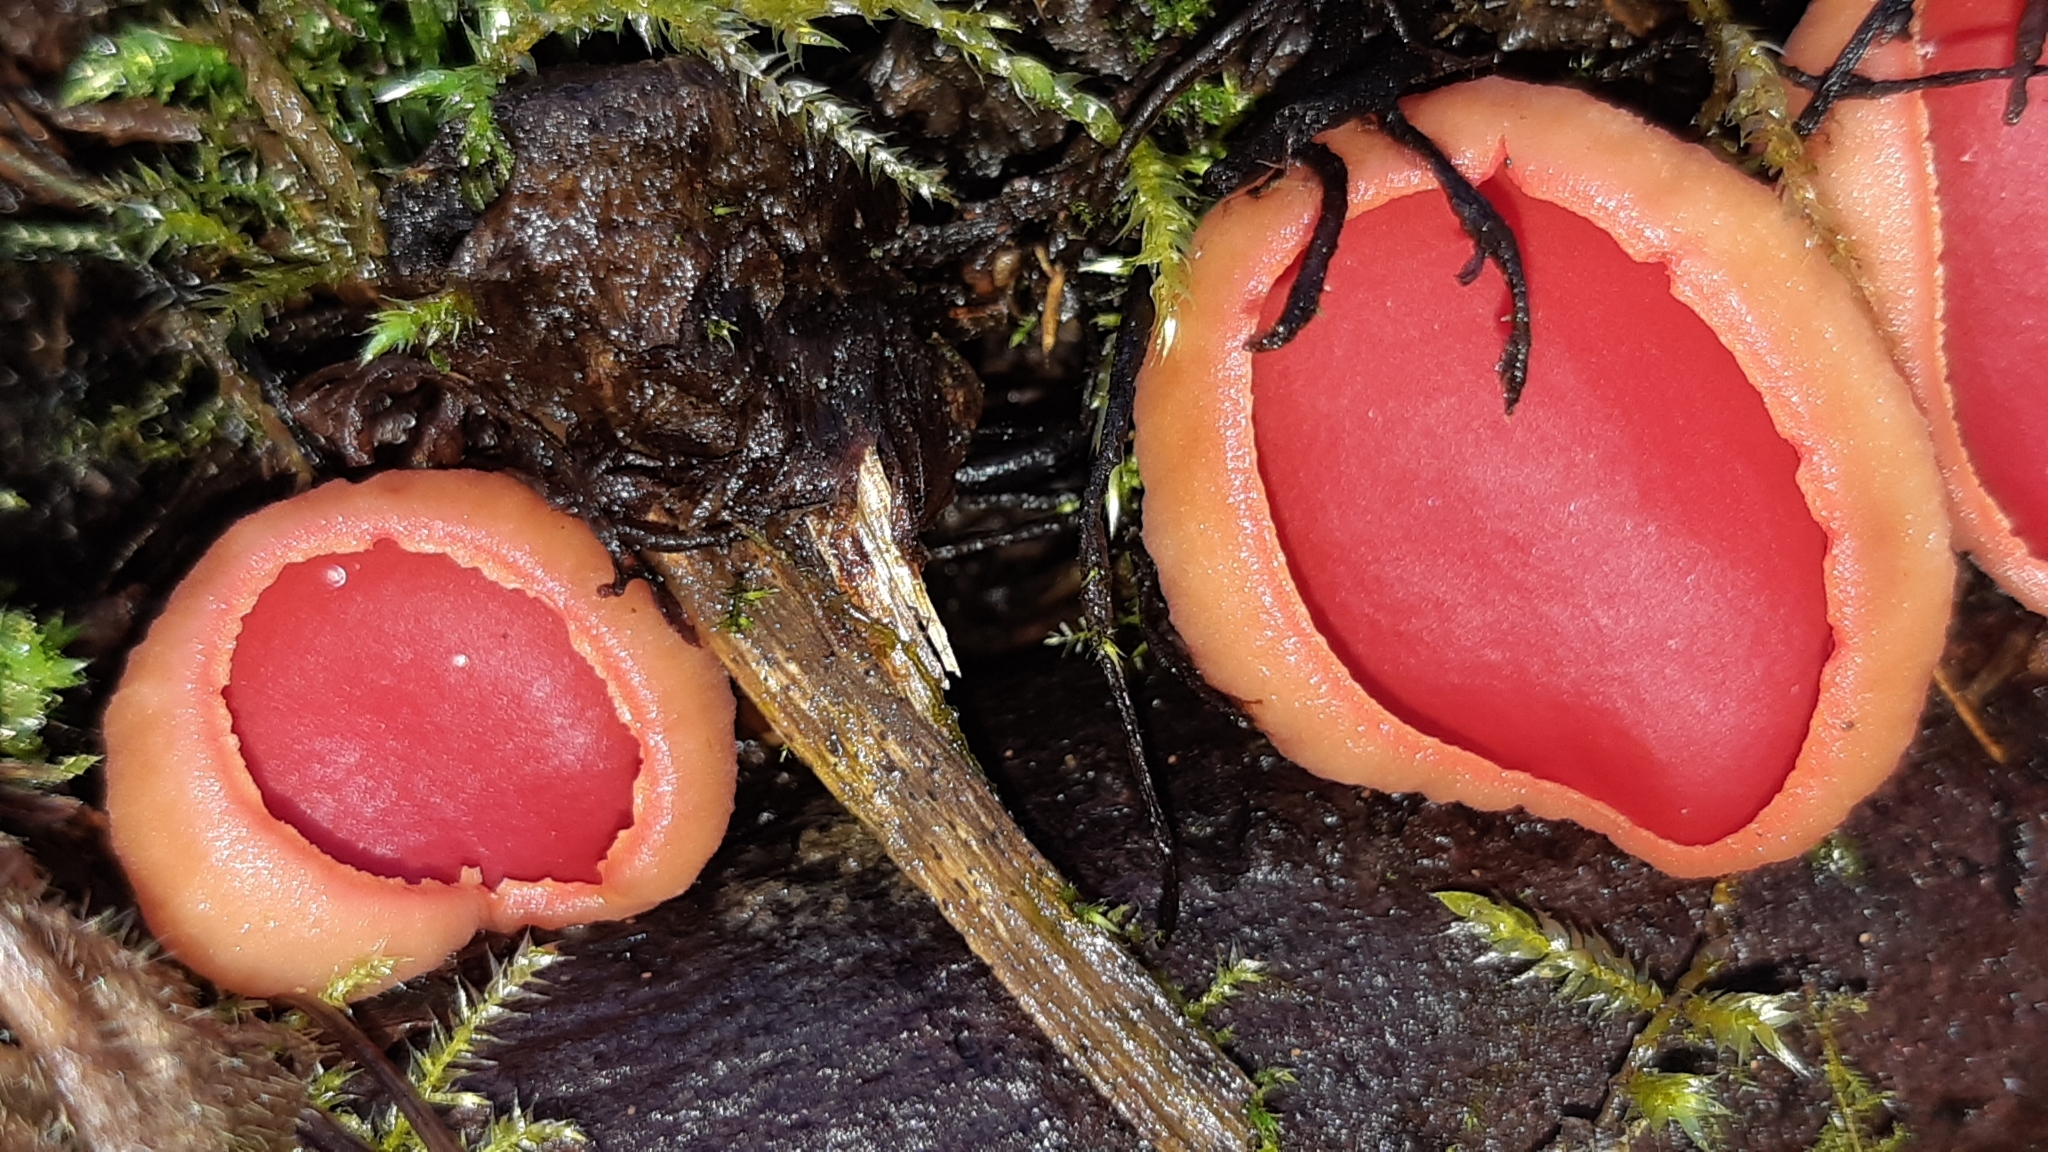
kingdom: Fungi
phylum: Ascomycota
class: Pezizomycetes
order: Pezizales
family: Sarcoscyphaceae
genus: Sarcoscypha
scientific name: Sarcoscypha
